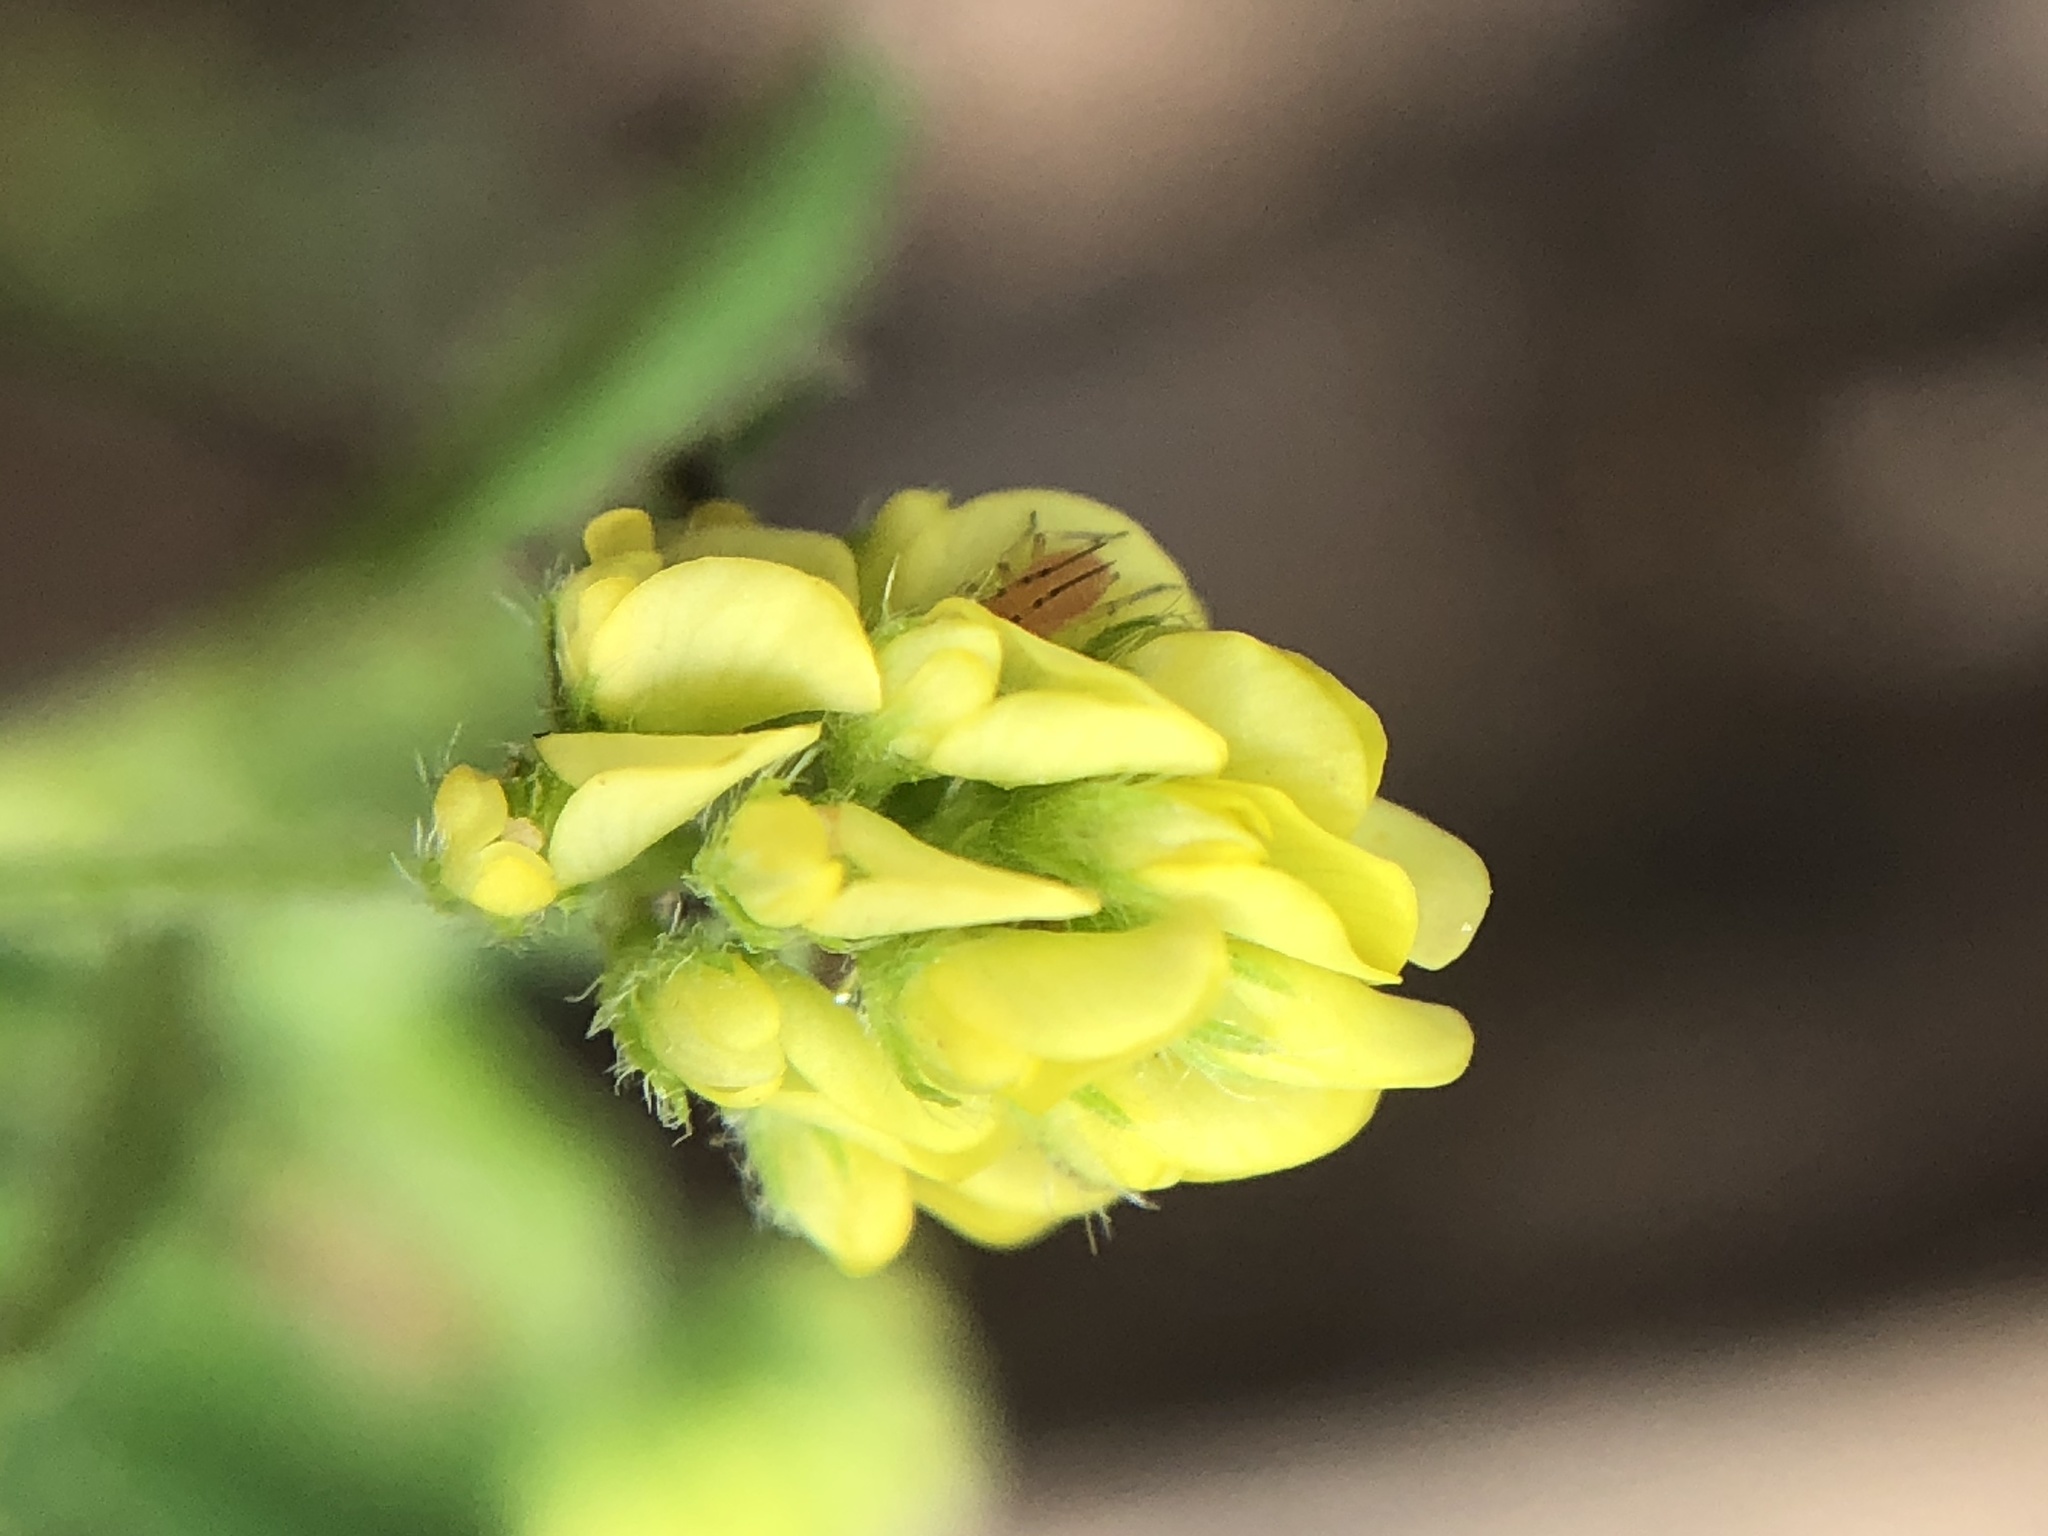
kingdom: Plantae
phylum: Tracheophyta
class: Magnoliopsida
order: Fabales
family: Fabaceae
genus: Medicago
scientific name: Medicago lupulina
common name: Black medick
